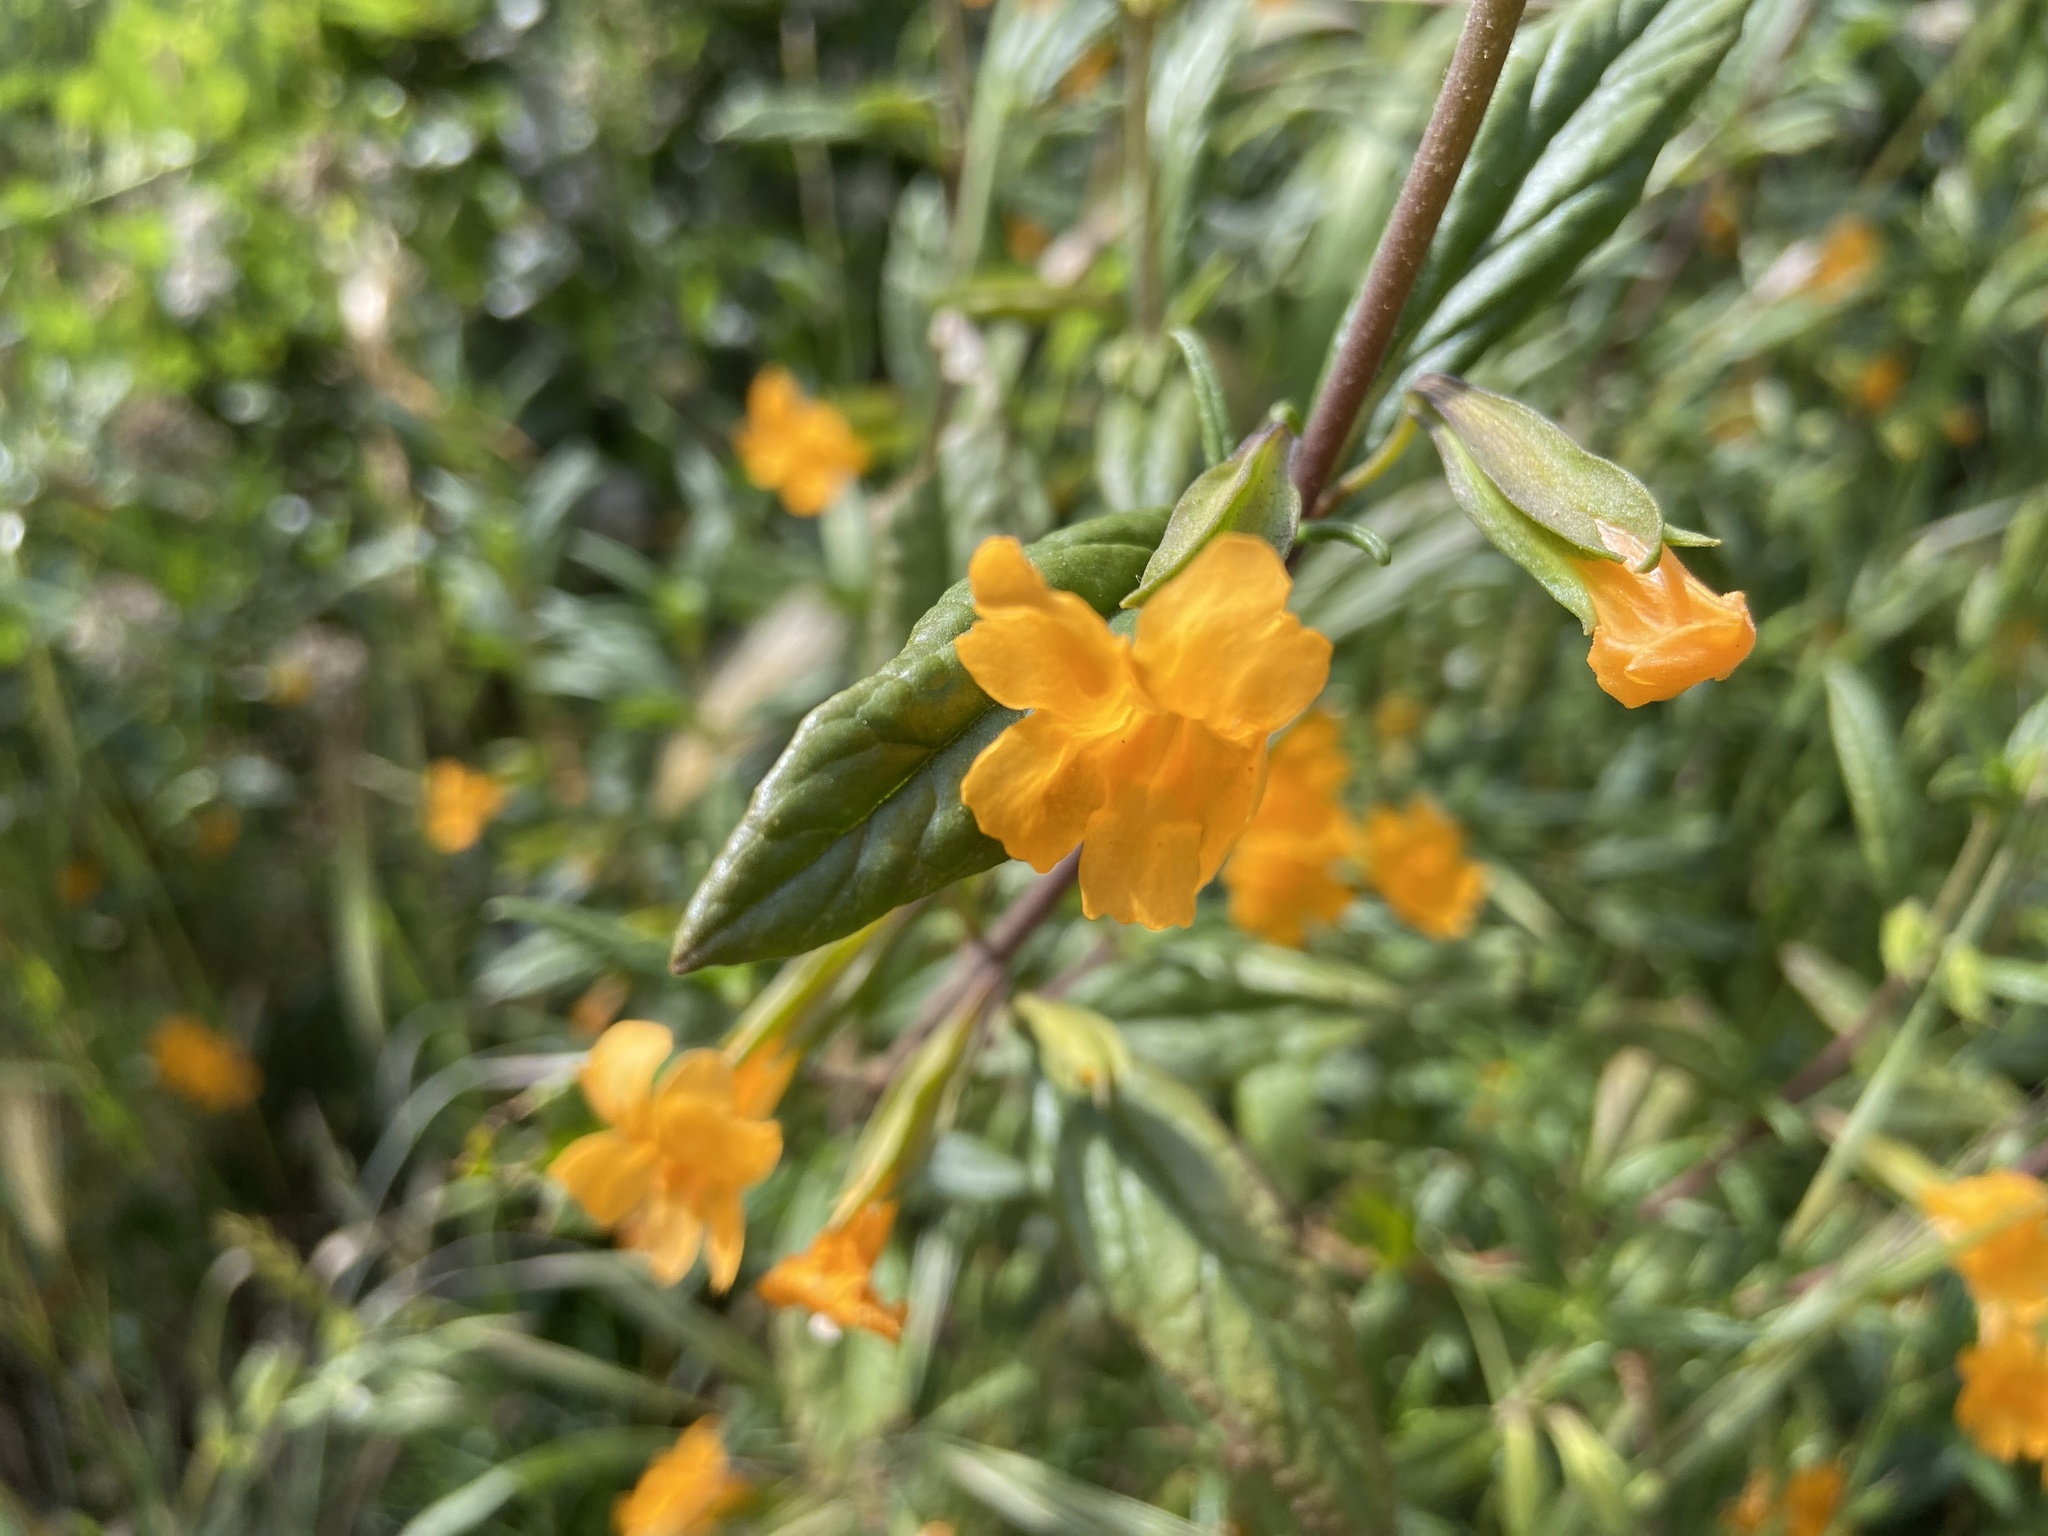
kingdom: Plantae
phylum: Tracheophyta
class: Magnoliopsida
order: Lamiales
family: Phrymaceae
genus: Diplacus
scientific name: Diplacus aurantiacus
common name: Bush monkey-flower
